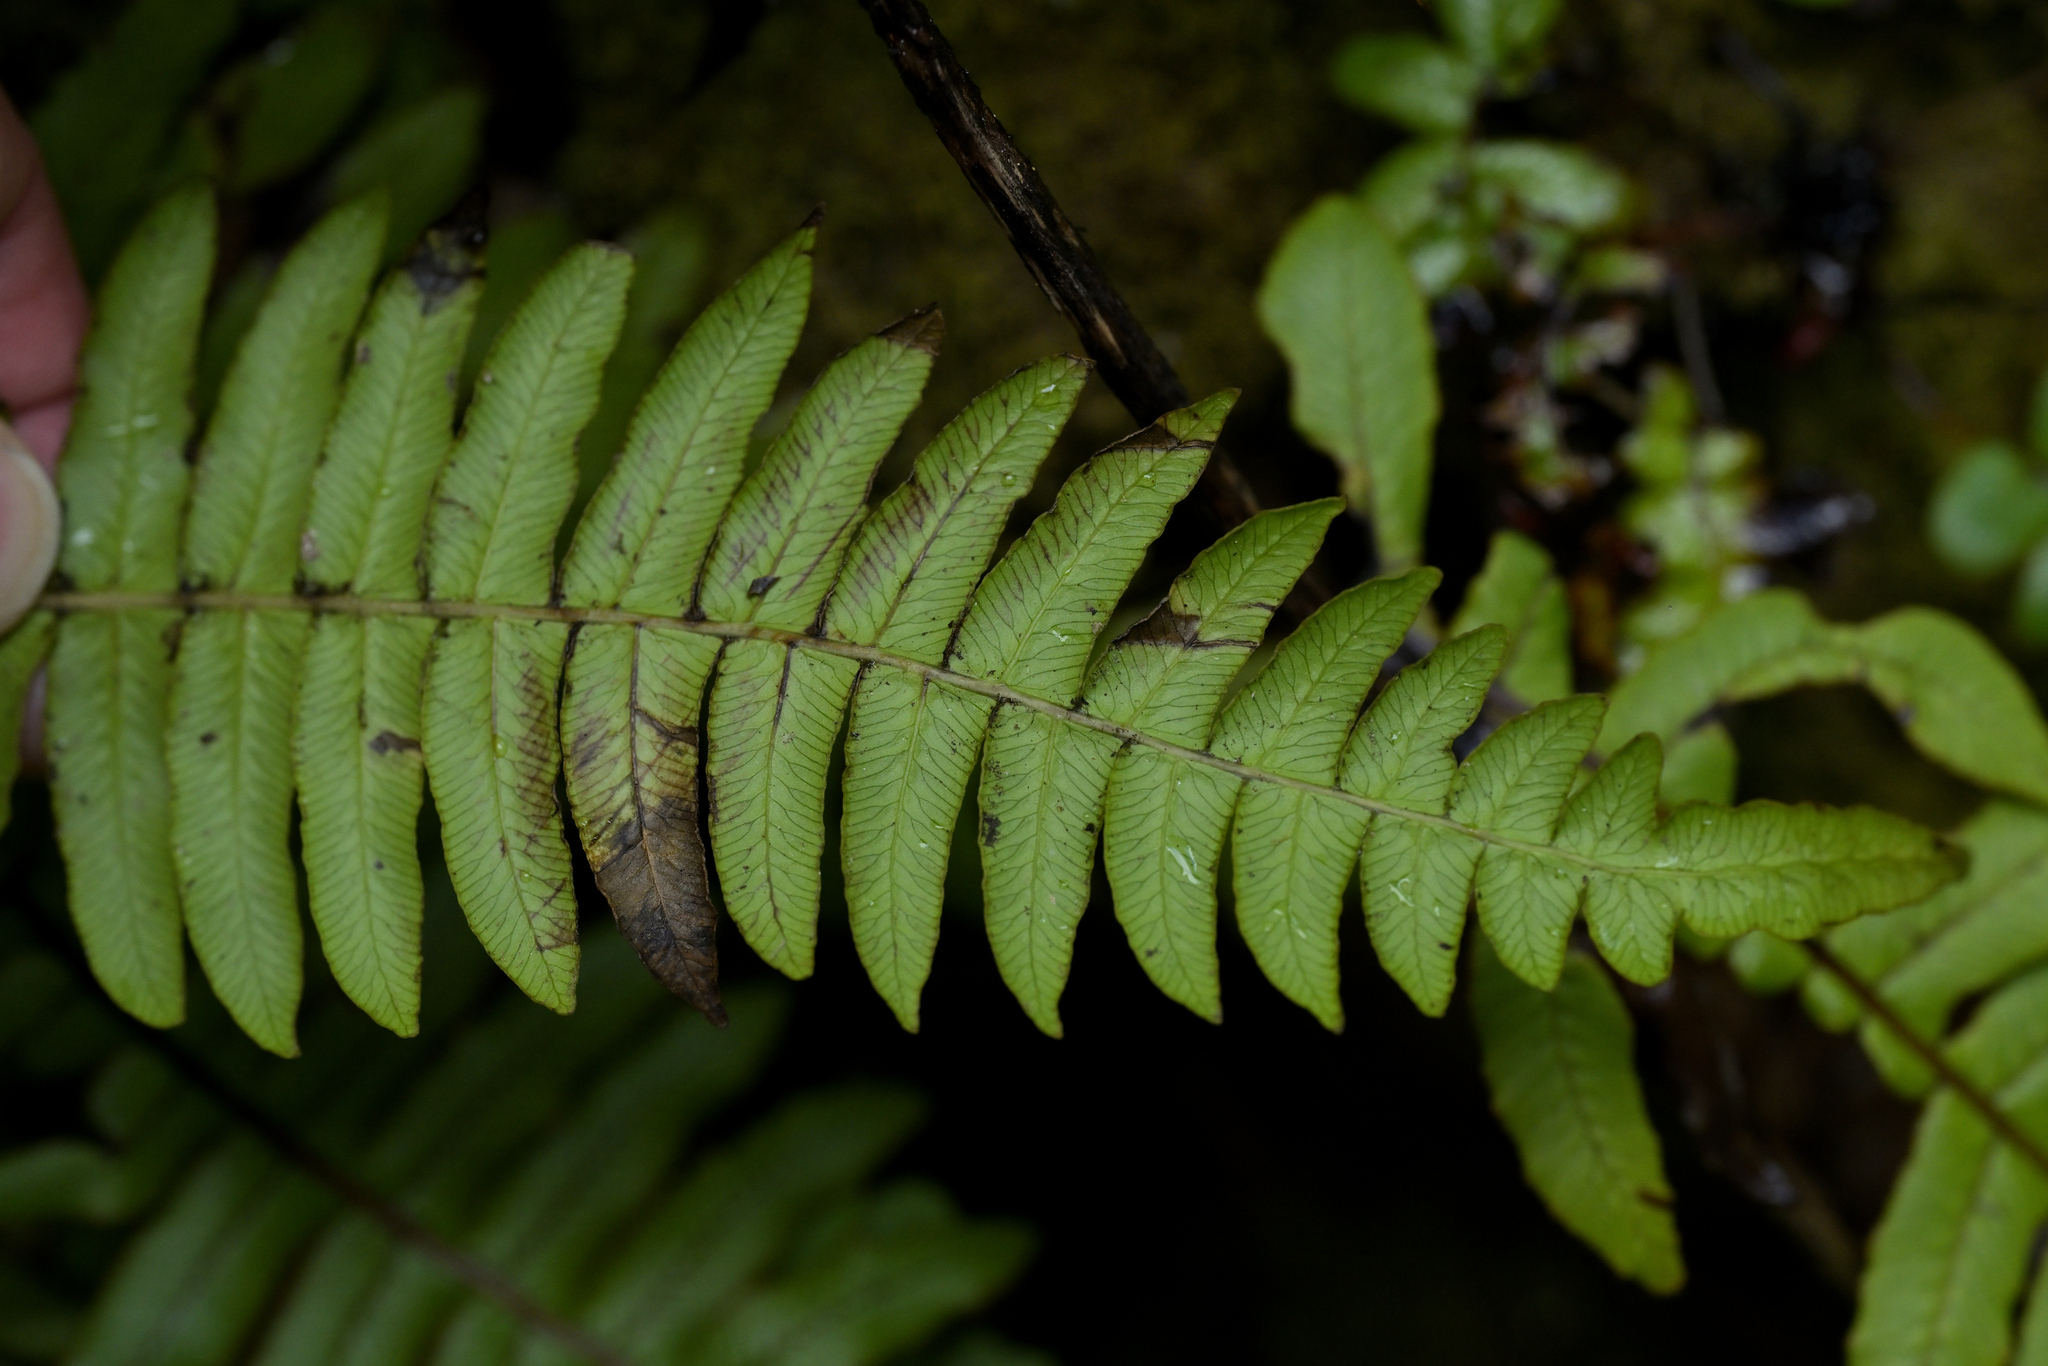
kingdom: Plantae
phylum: Tracheophyta
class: Polypodiopsida
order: Polypodiales
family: Blechnaceae
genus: Cranfillia
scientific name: Cranfillia deltoides
